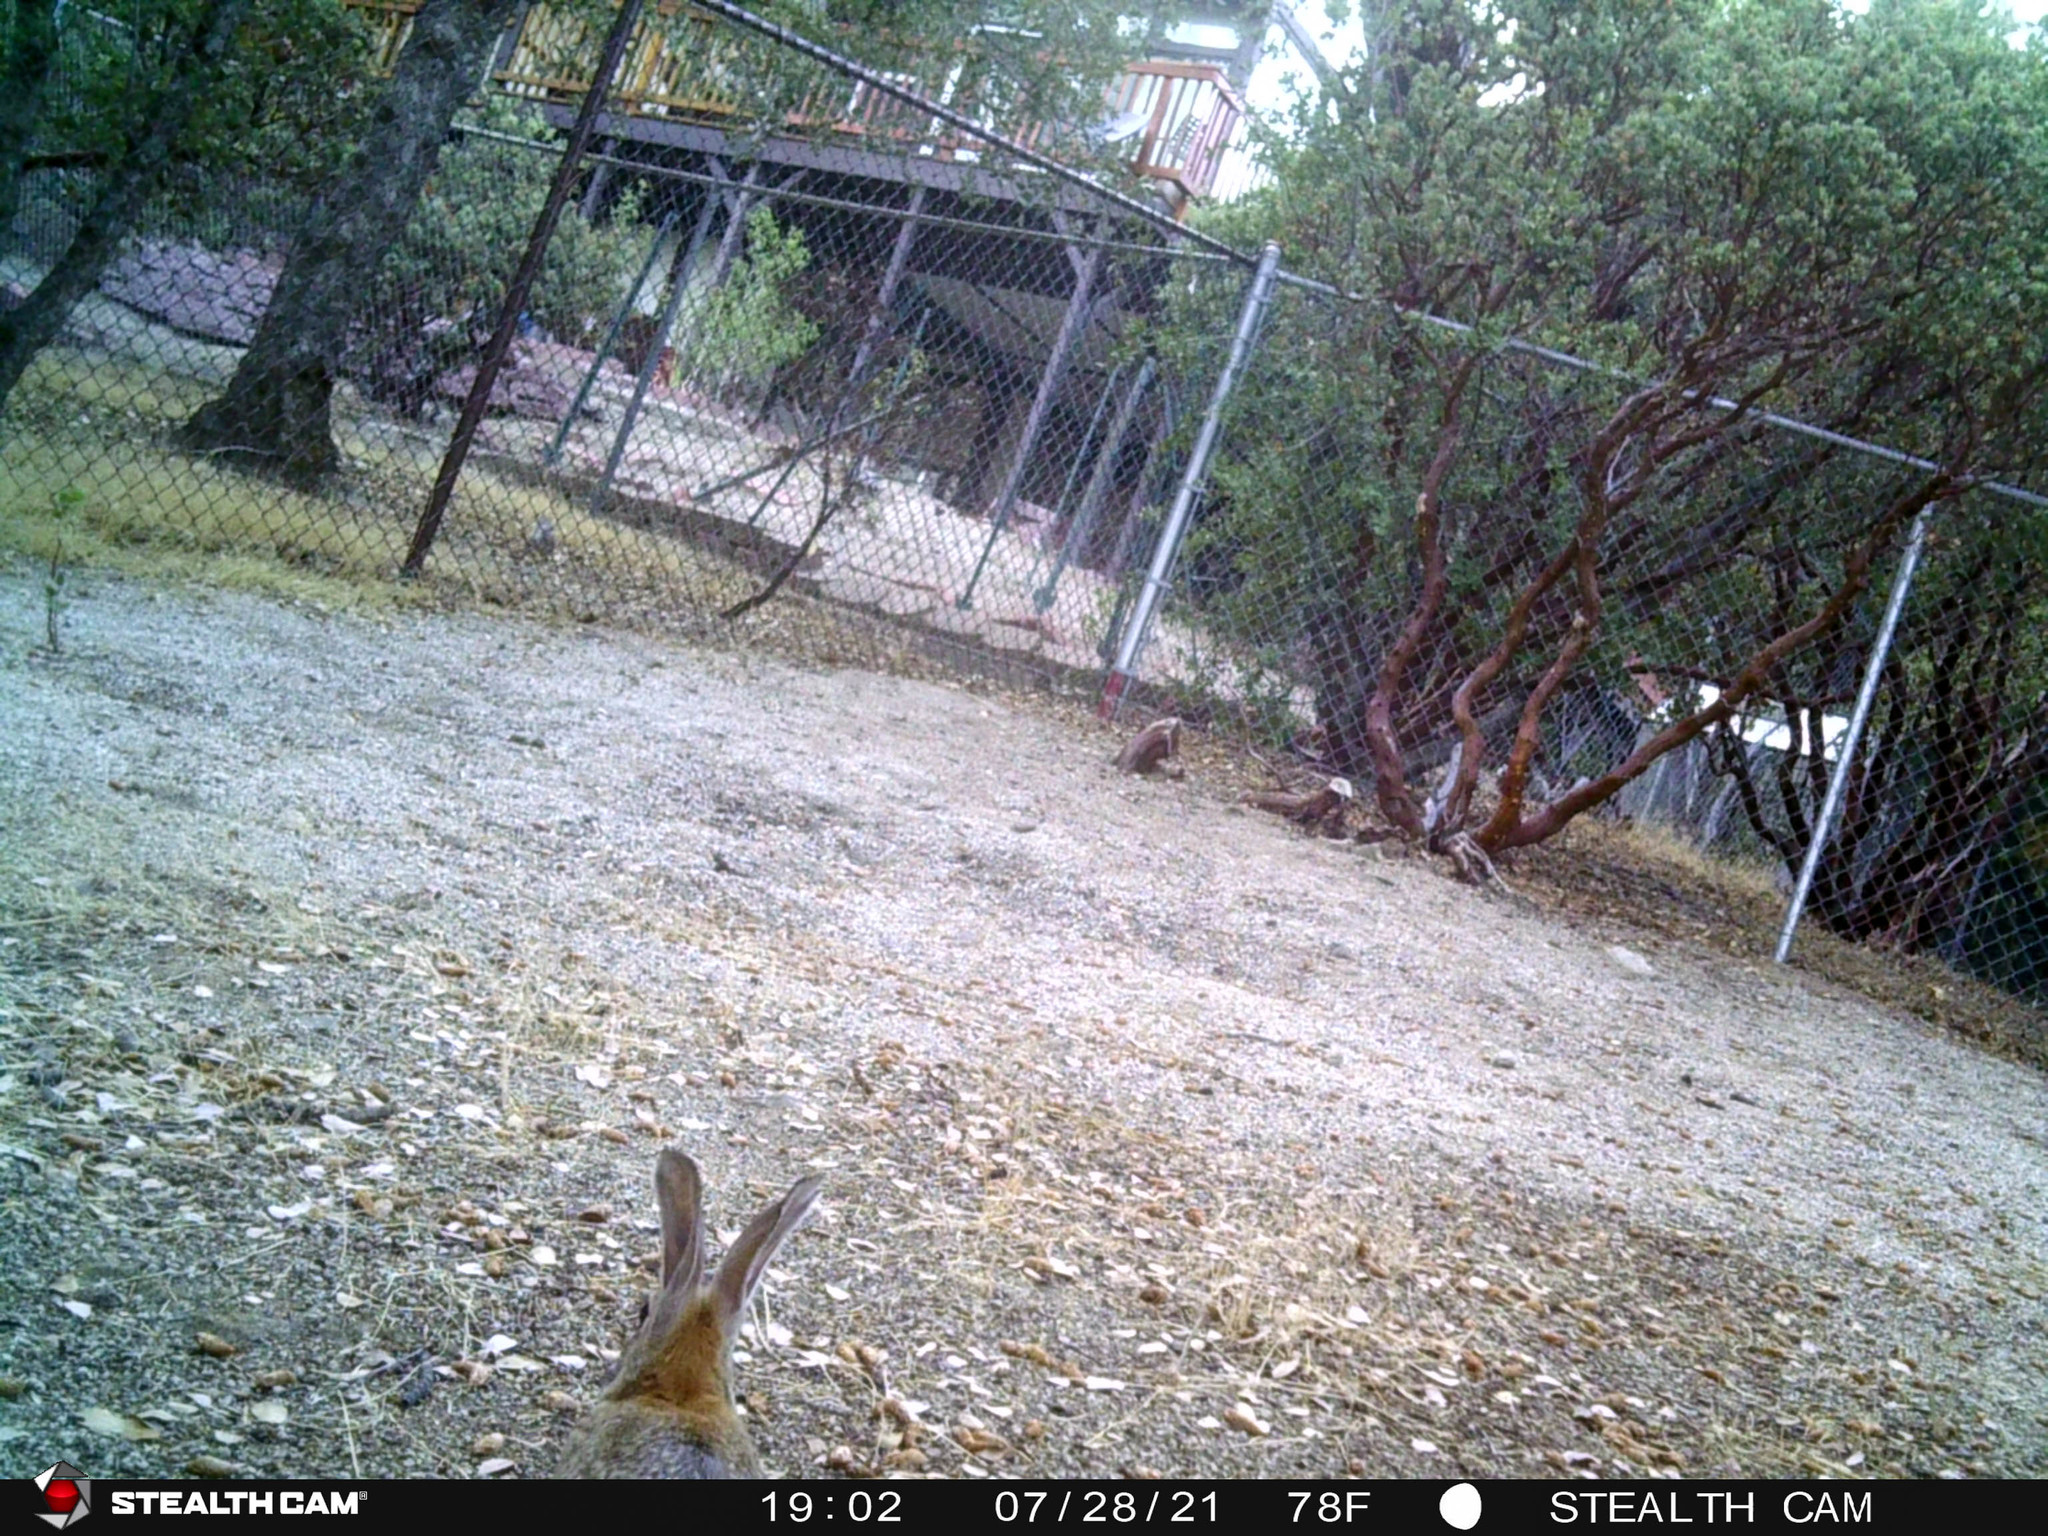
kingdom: Animalia
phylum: Chordata
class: Mammalia
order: Lagomorpha
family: Leporidae
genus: Sylvilagus
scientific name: Sylvilagus audubonii
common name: Desert cottontail
